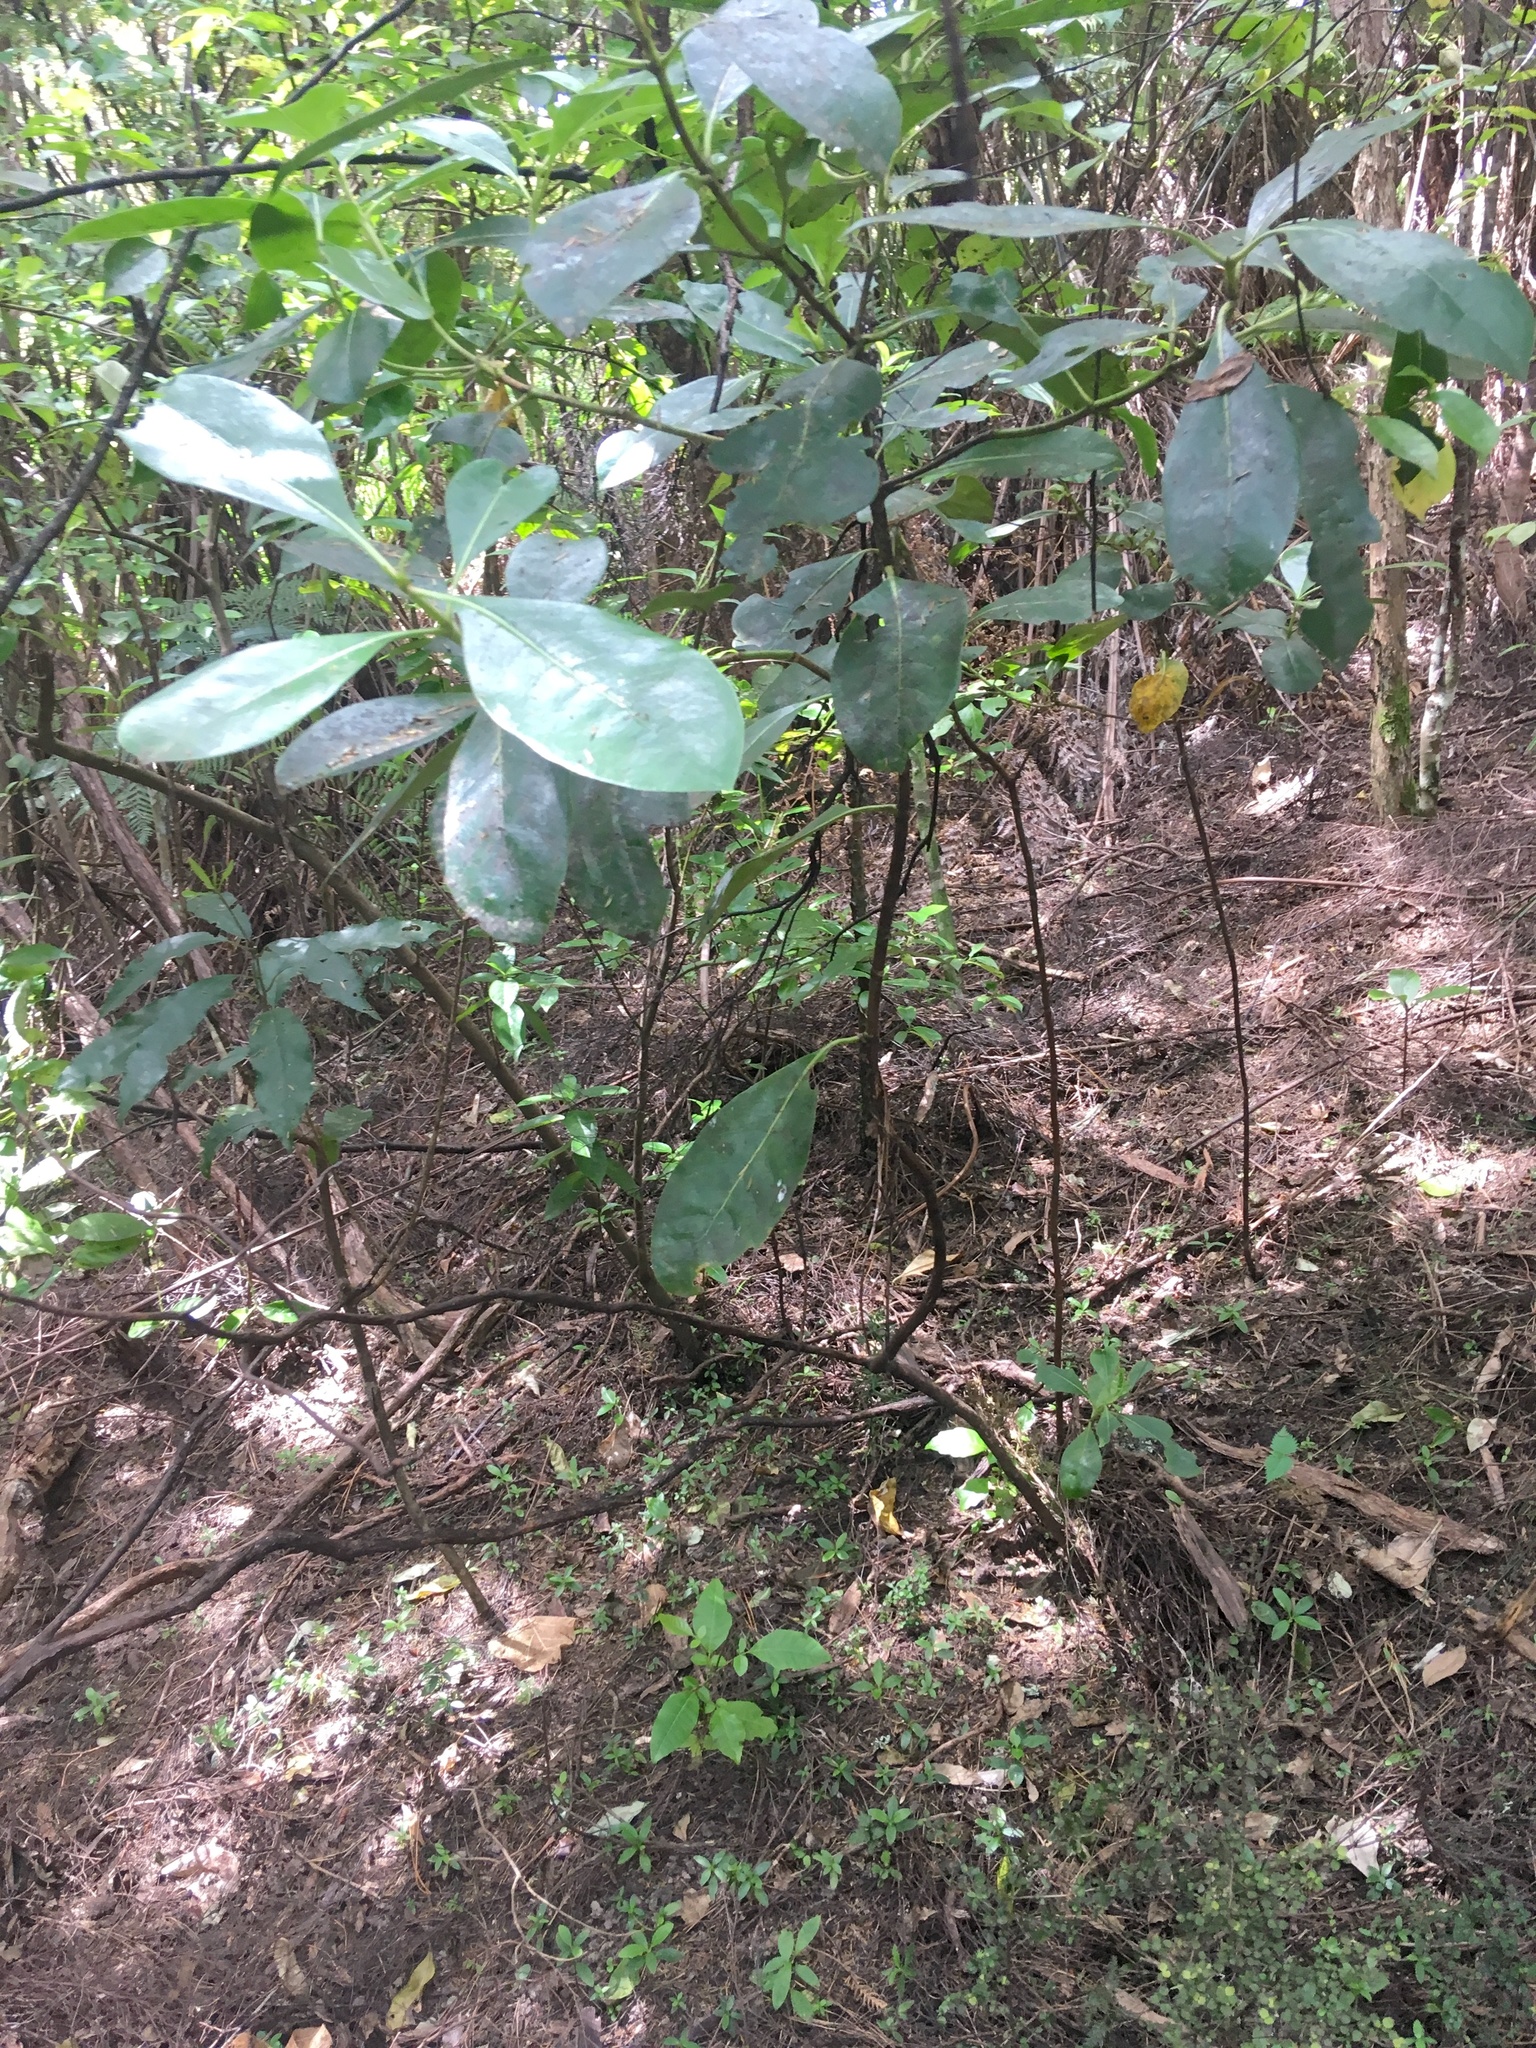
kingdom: Plantae
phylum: Tracheophyta
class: Magnoliopsida
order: Gentianales
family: Rubiaceae
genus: Coprosma
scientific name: Coprosma lucida
